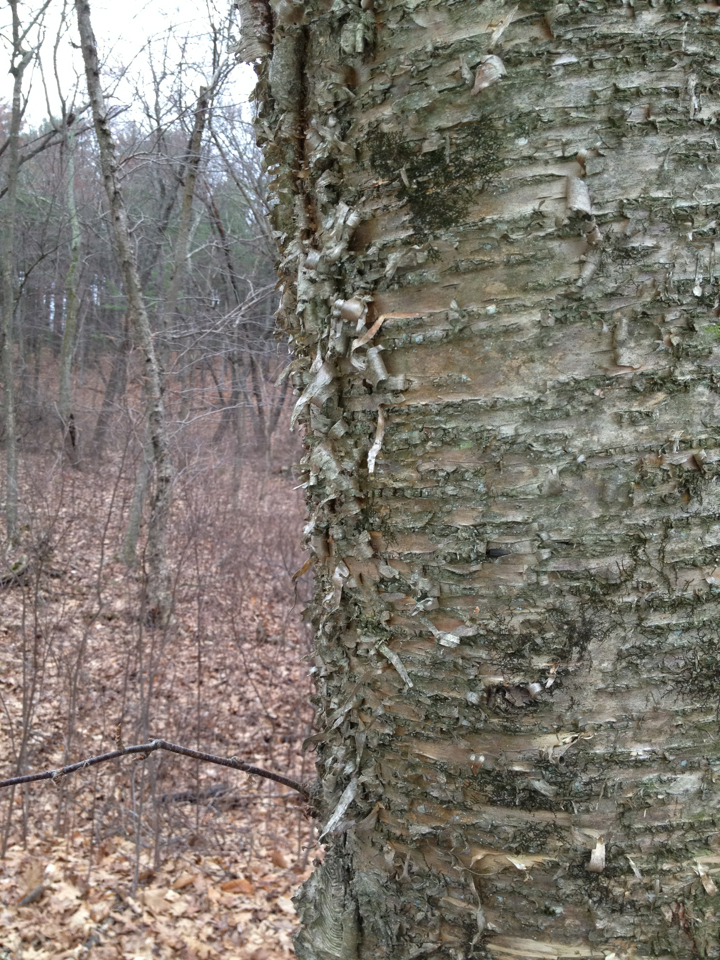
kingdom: Plantae
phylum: Tracheophyta
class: Magnoliopsida
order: Fagales
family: Betulaceae
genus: Betula
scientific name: Betula alleghaniensis
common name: Yellow birch
